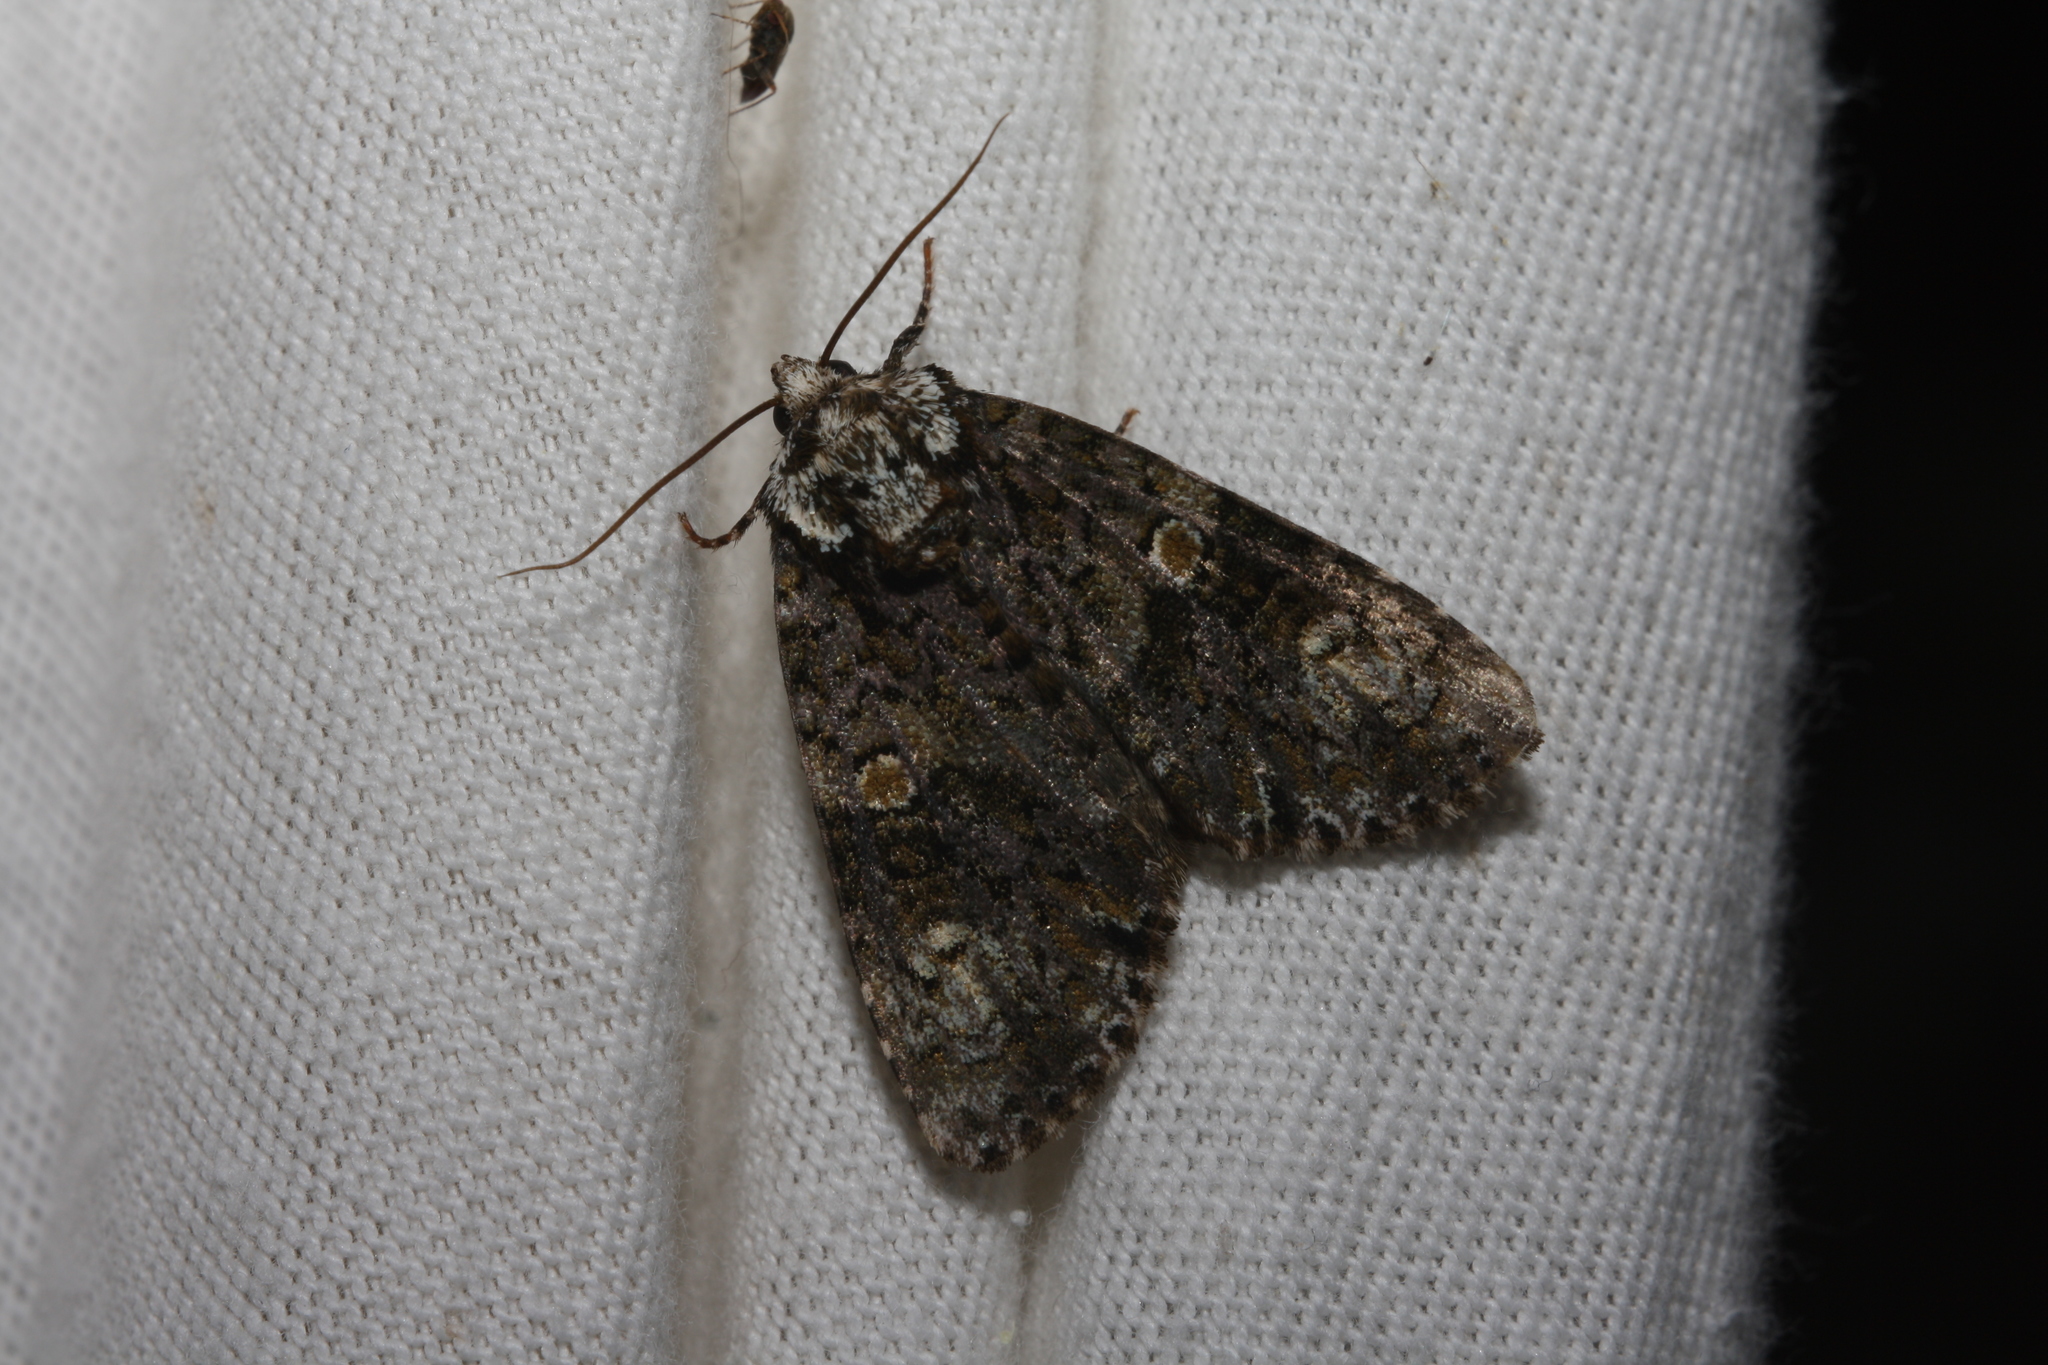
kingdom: Animalia
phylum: Arthropoda
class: Insecta
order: Lepidoptera
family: Noctuidae
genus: Craniophora
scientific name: Craniophora ligustri
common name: Coronet
